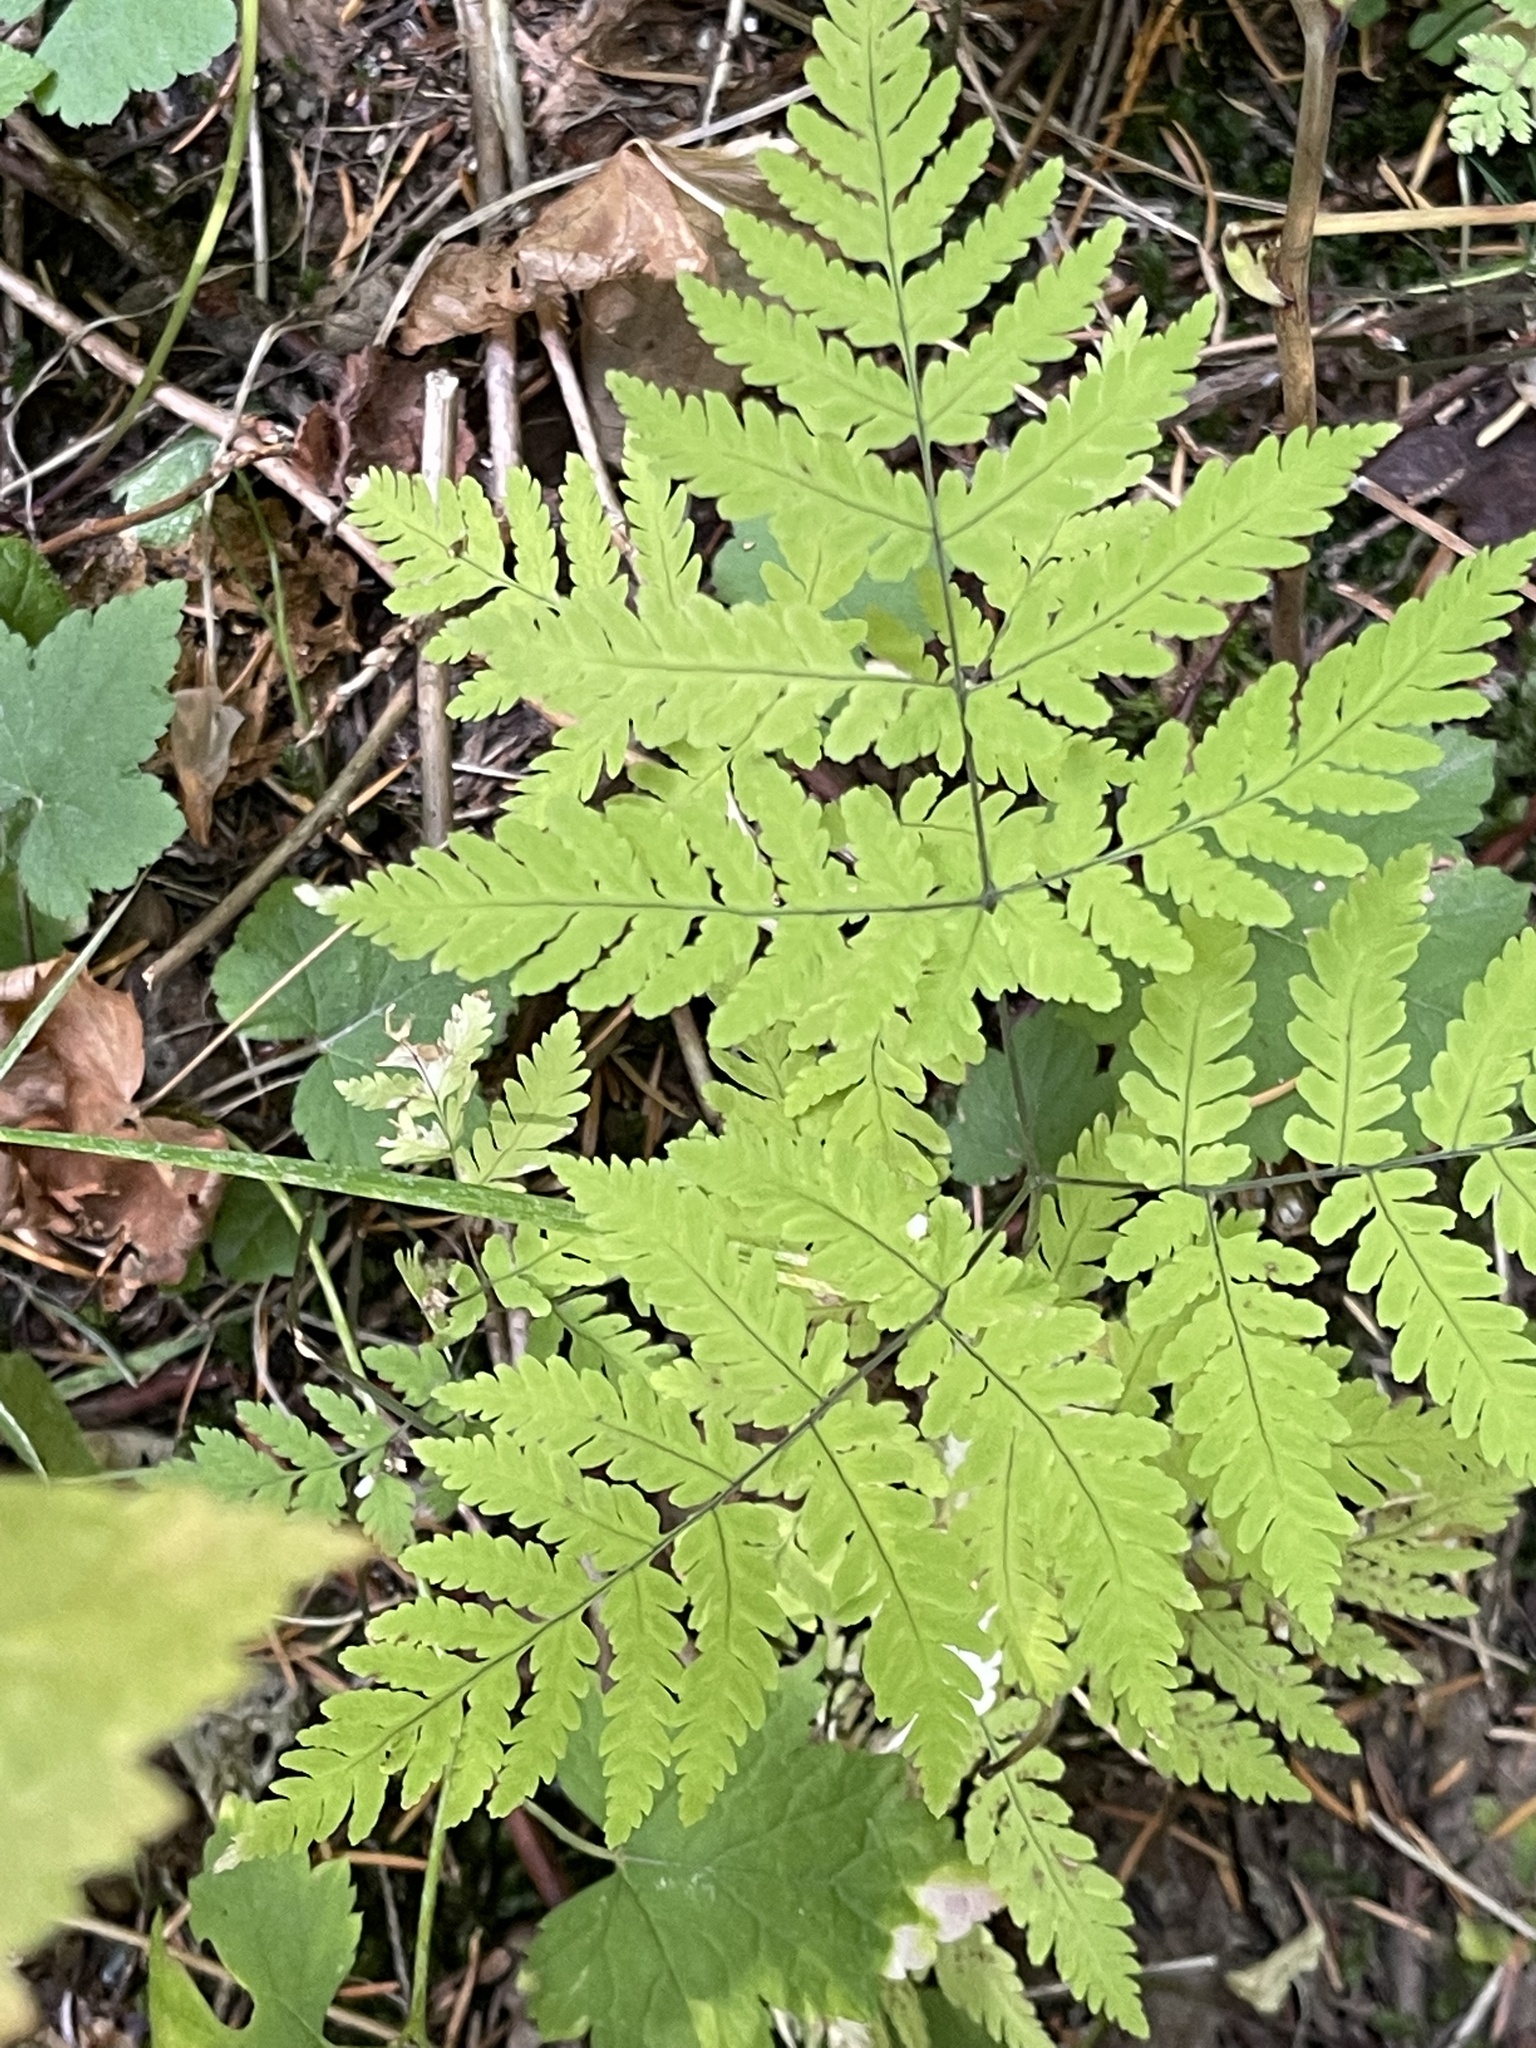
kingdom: Plantae
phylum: Tracheophyta
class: Polypodiopsida
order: Polypodiales
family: Cystopteridaceae
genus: Gymnocarpium
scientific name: Gymnocarpium disjunctum
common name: Western oak fern
